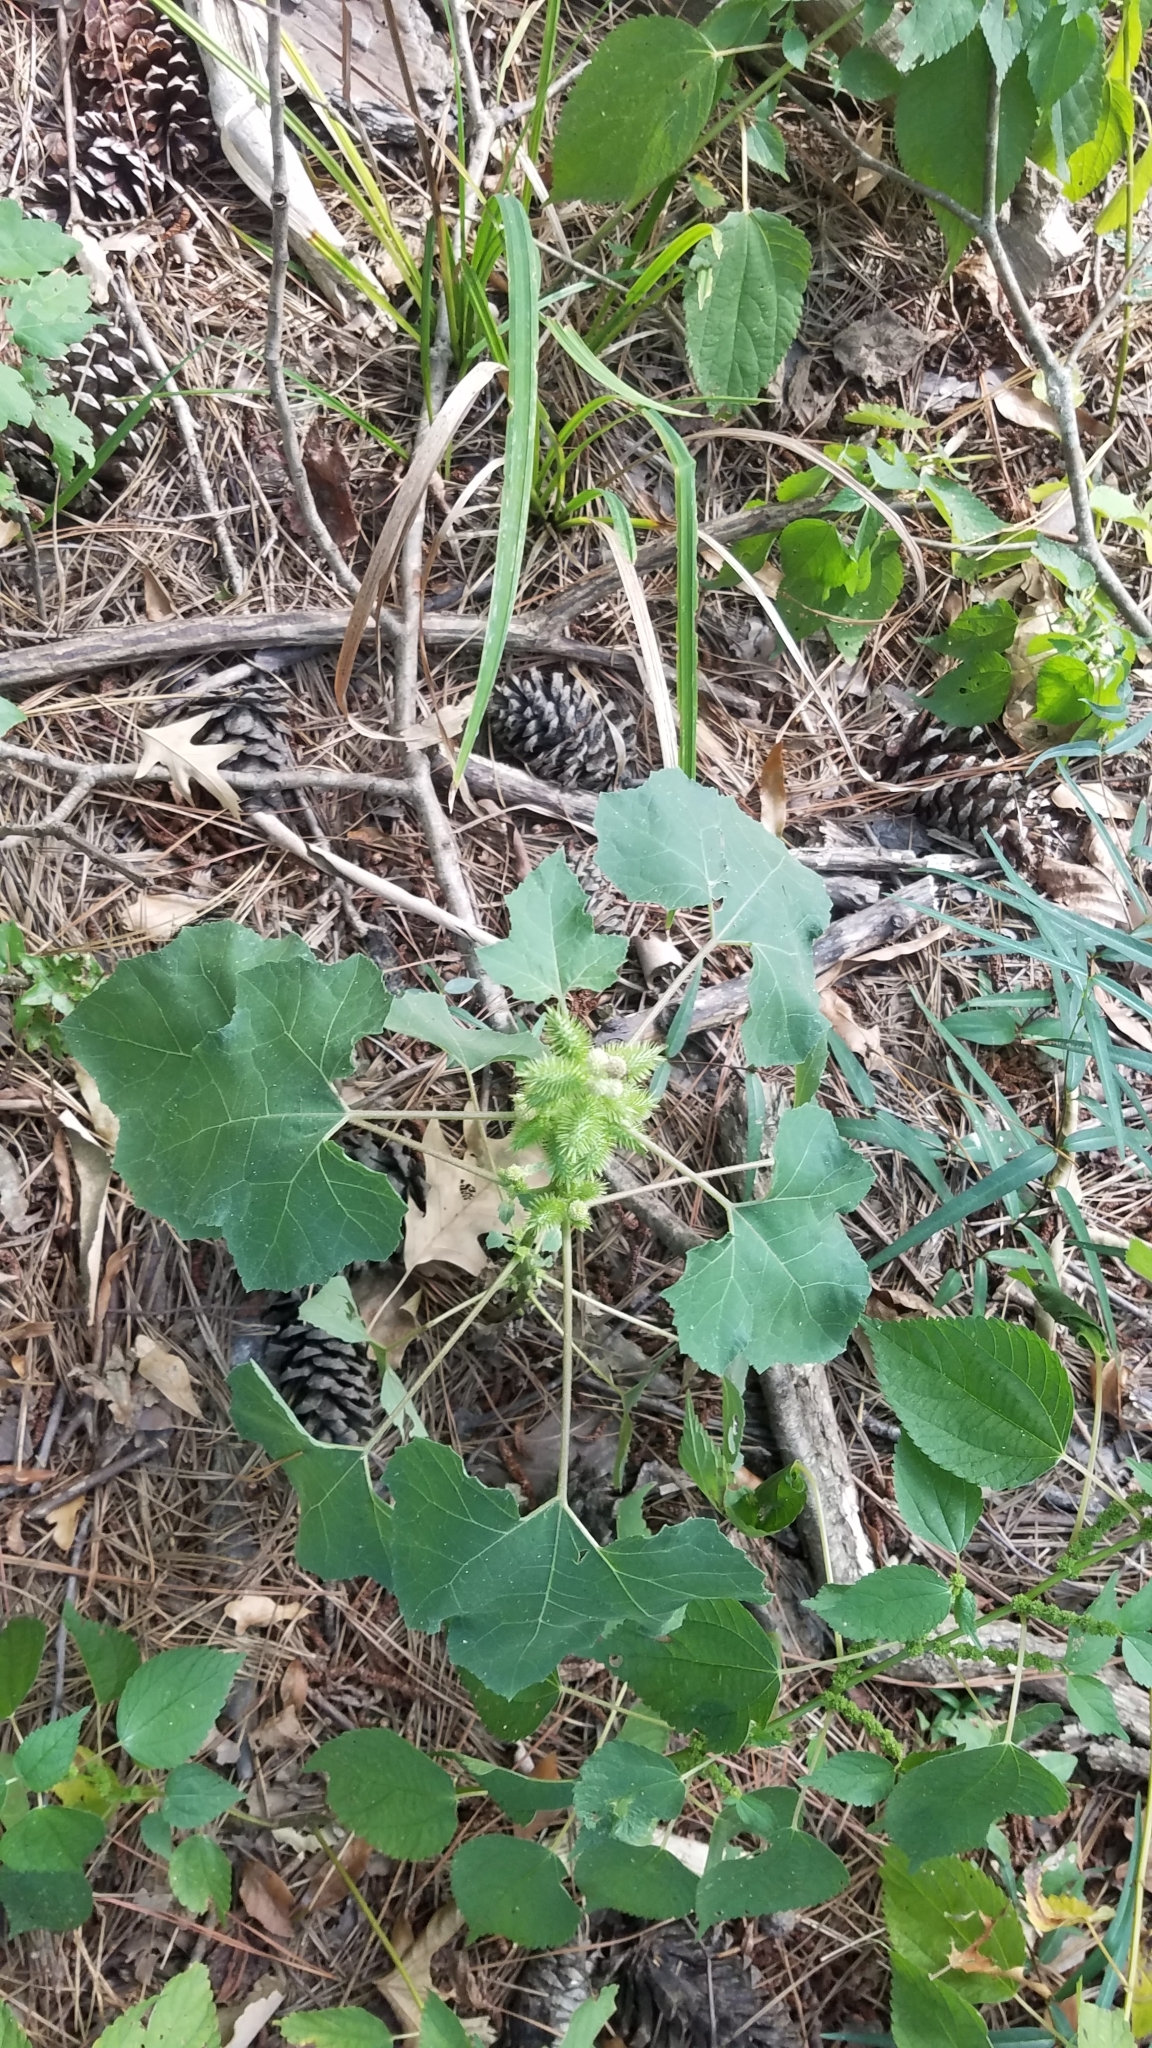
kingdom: Plantae
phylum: Tracheophyta
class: Magnoliopsida
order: Asterales
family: Asteraceae
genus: Xanthium
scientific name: Xanthium strumarium
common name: Rough cocklebur
